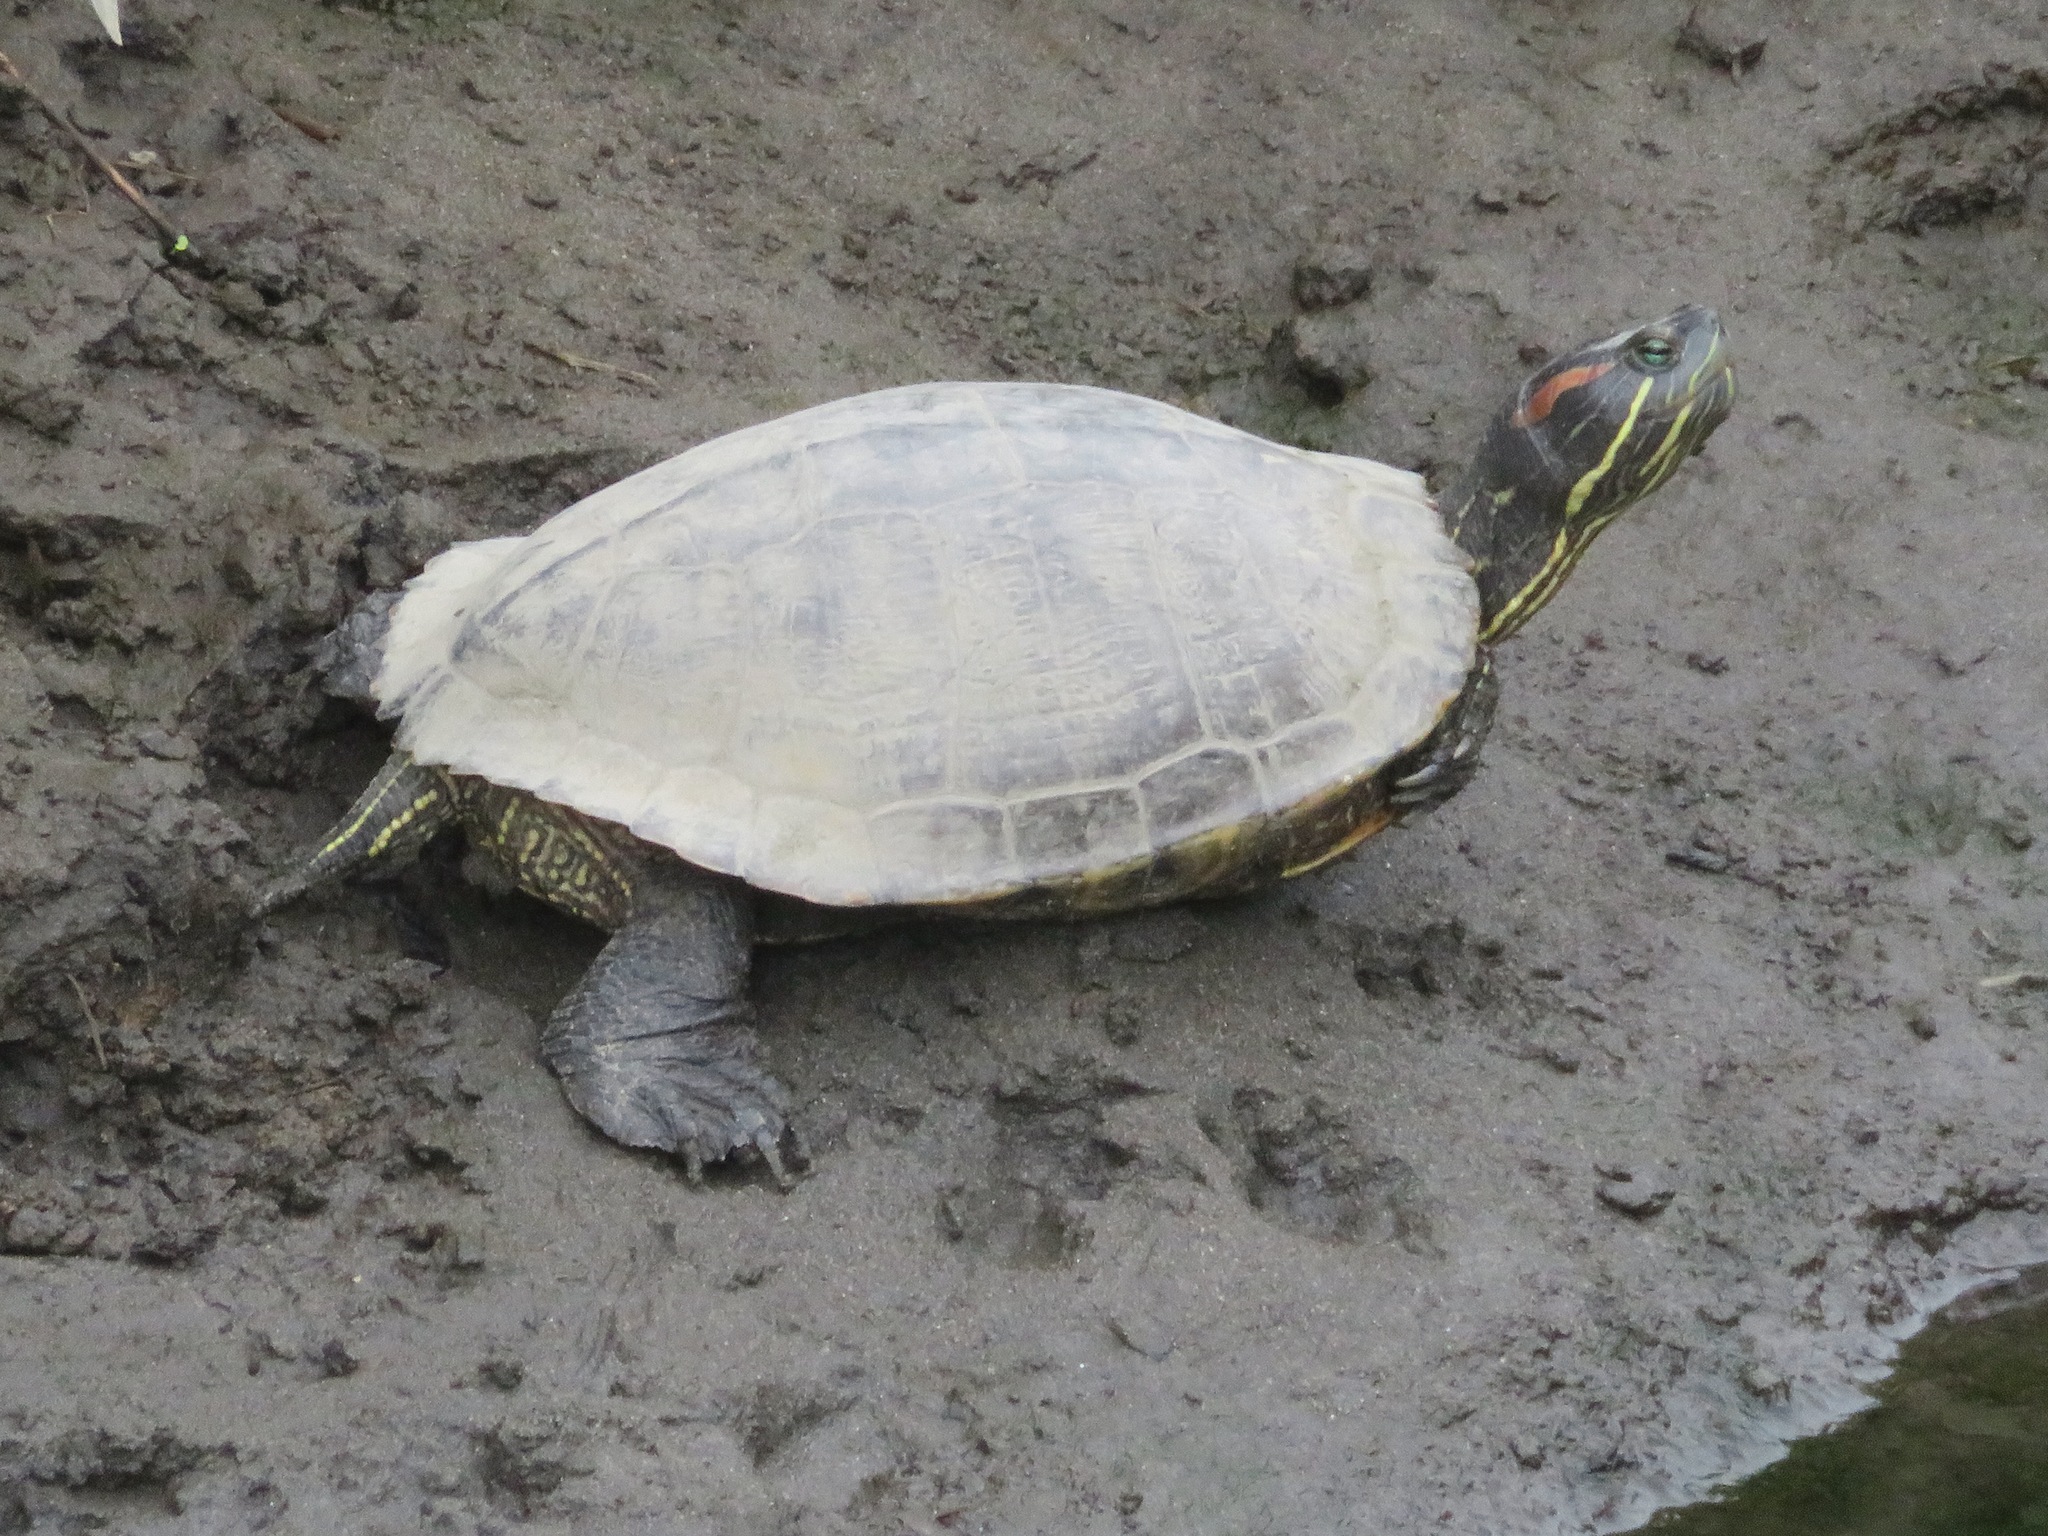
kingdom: Animalia
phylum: Chordata
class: Testudines
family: Emydidae
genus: Trachemys
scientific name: Trachemys scripta
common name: Slider
